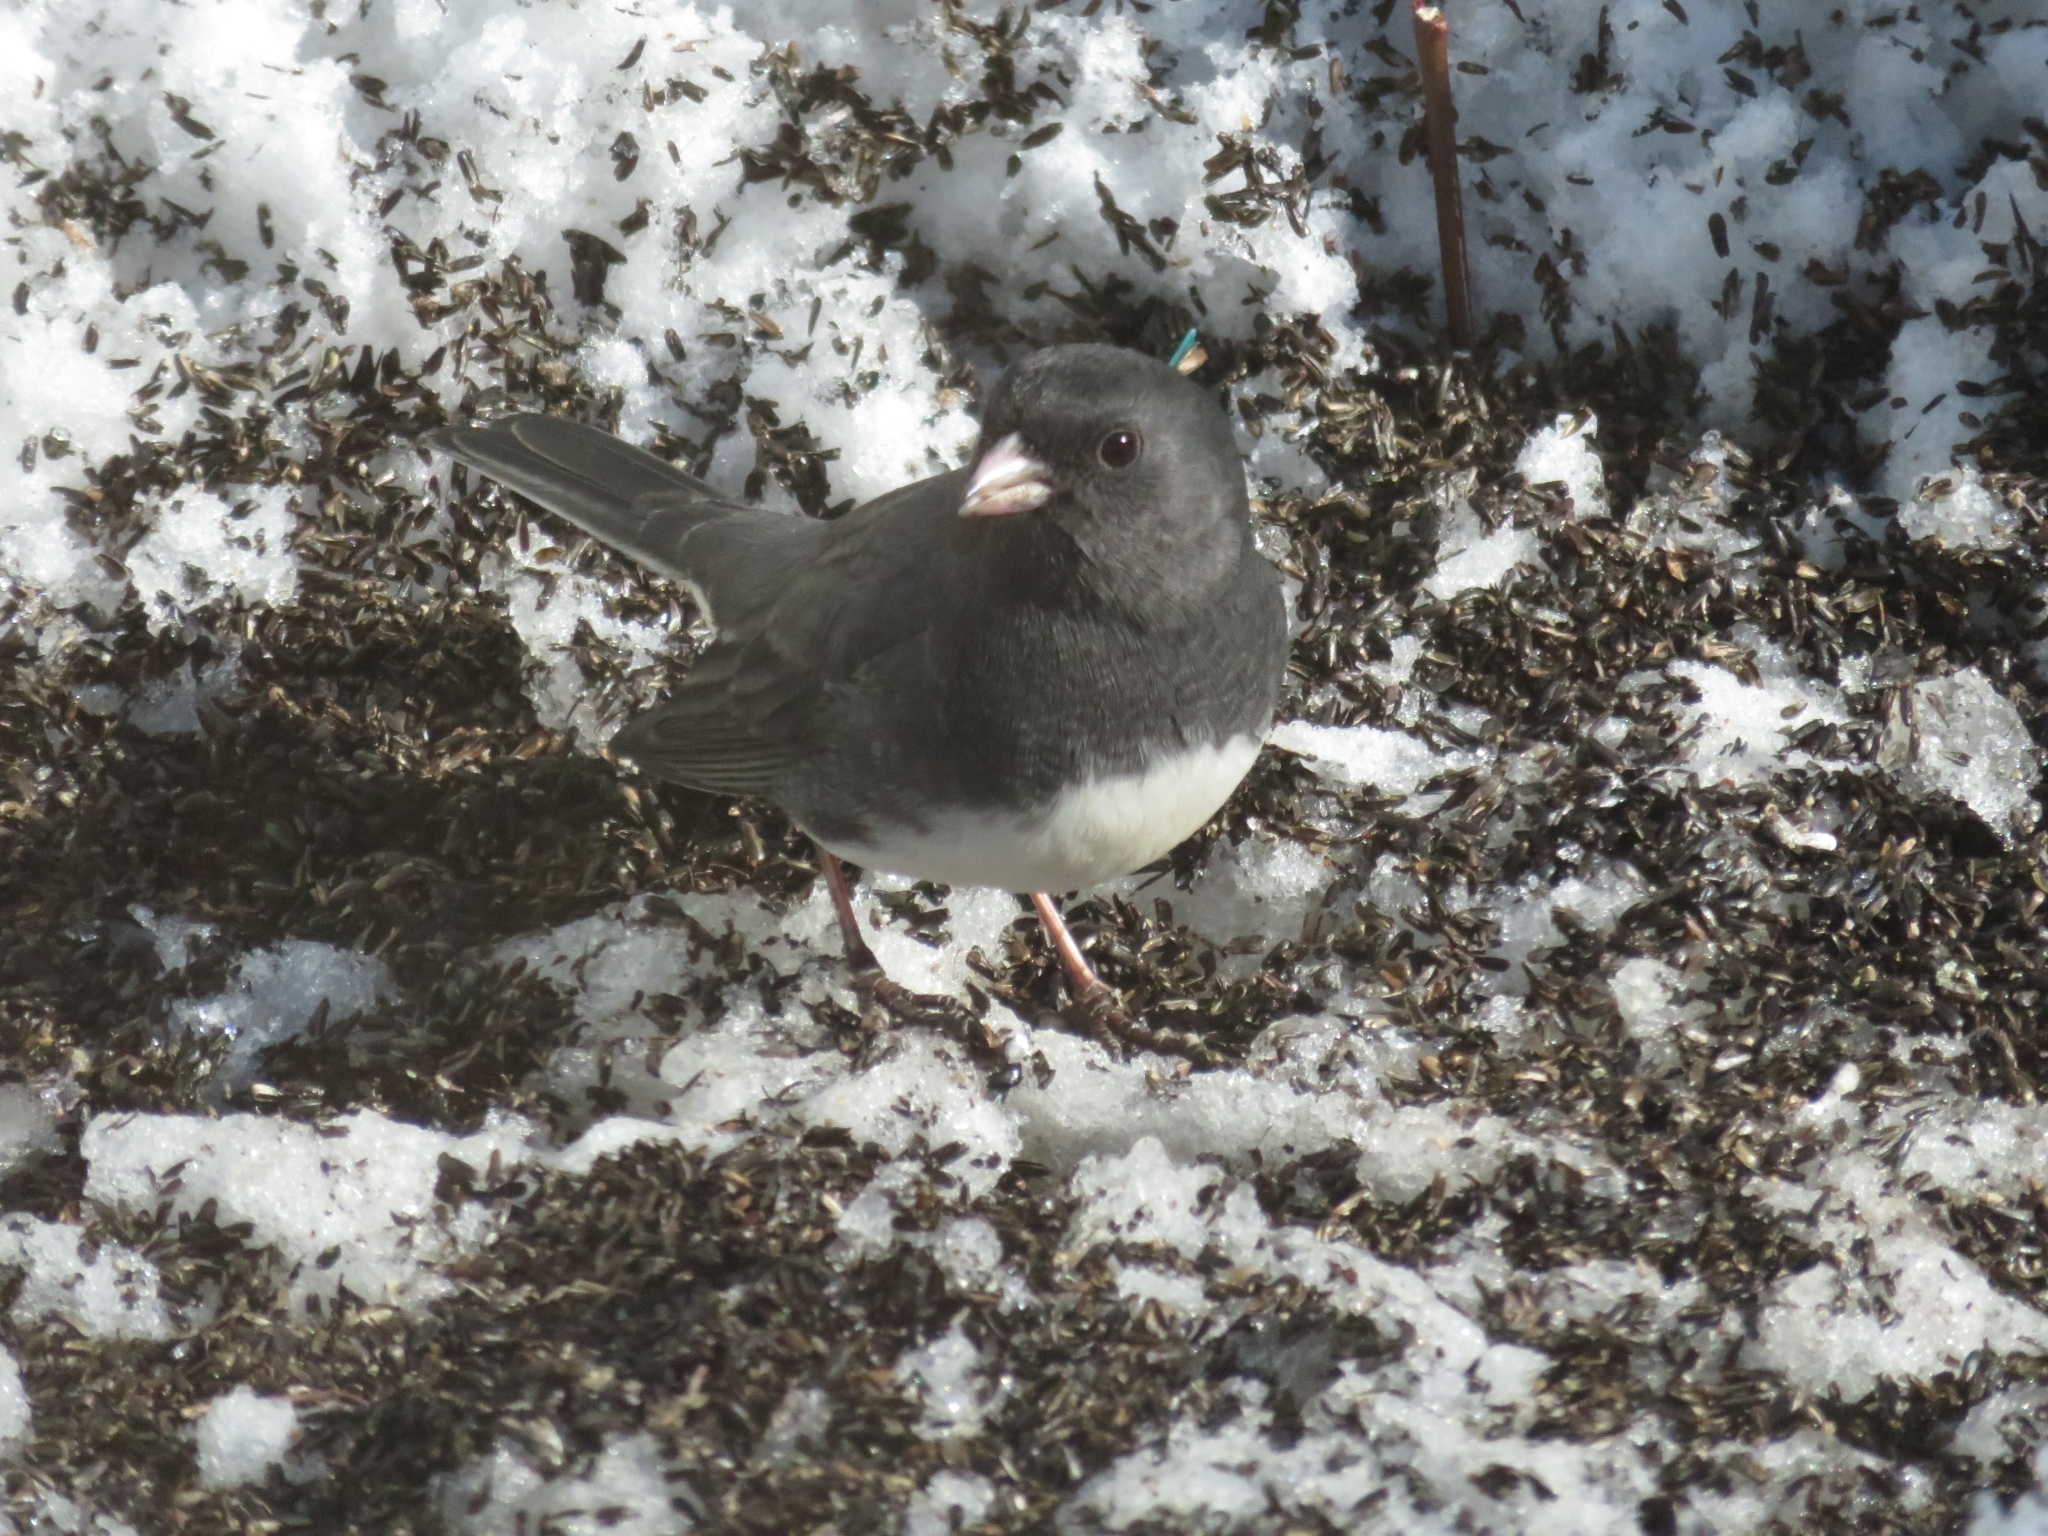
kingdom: Animalia
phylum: Chordata
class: Aves
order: Passeriformes
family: Passerellidae
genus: Junco
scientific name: Junco hyemalis
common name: Dark-eyed junco
